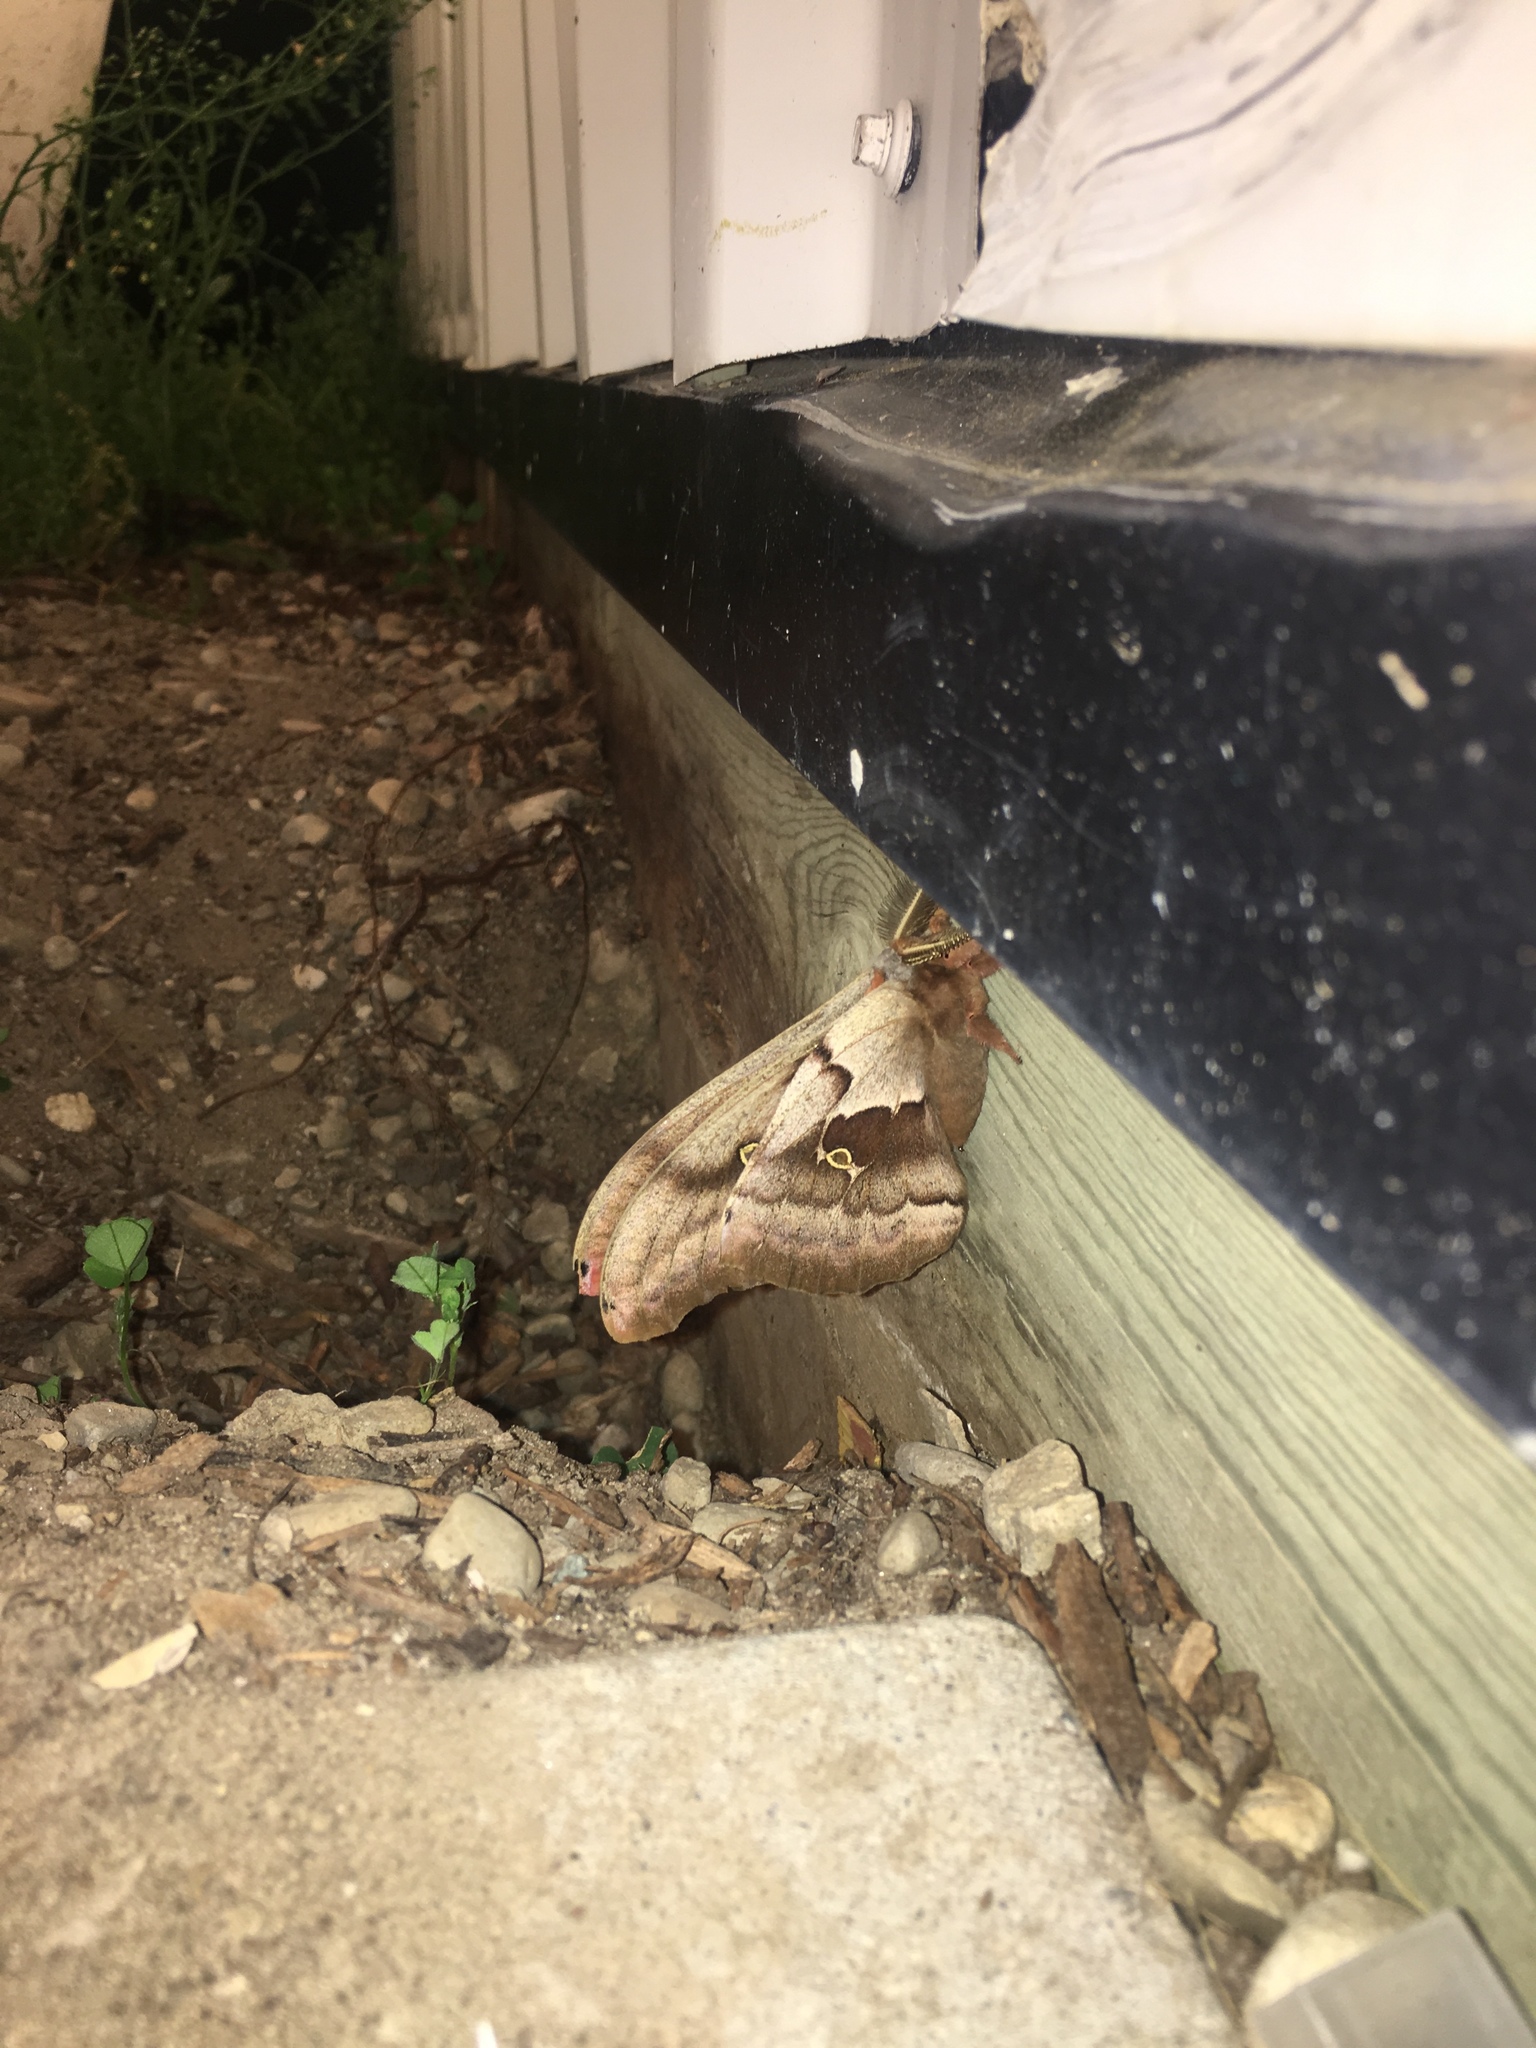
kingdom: Animalia
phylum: Arthropoda
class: Insecta
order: Lepidoptera
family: Saturniidae
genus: Antheraea
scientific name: Antheraea polyphemus
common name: Polyphemus moth
